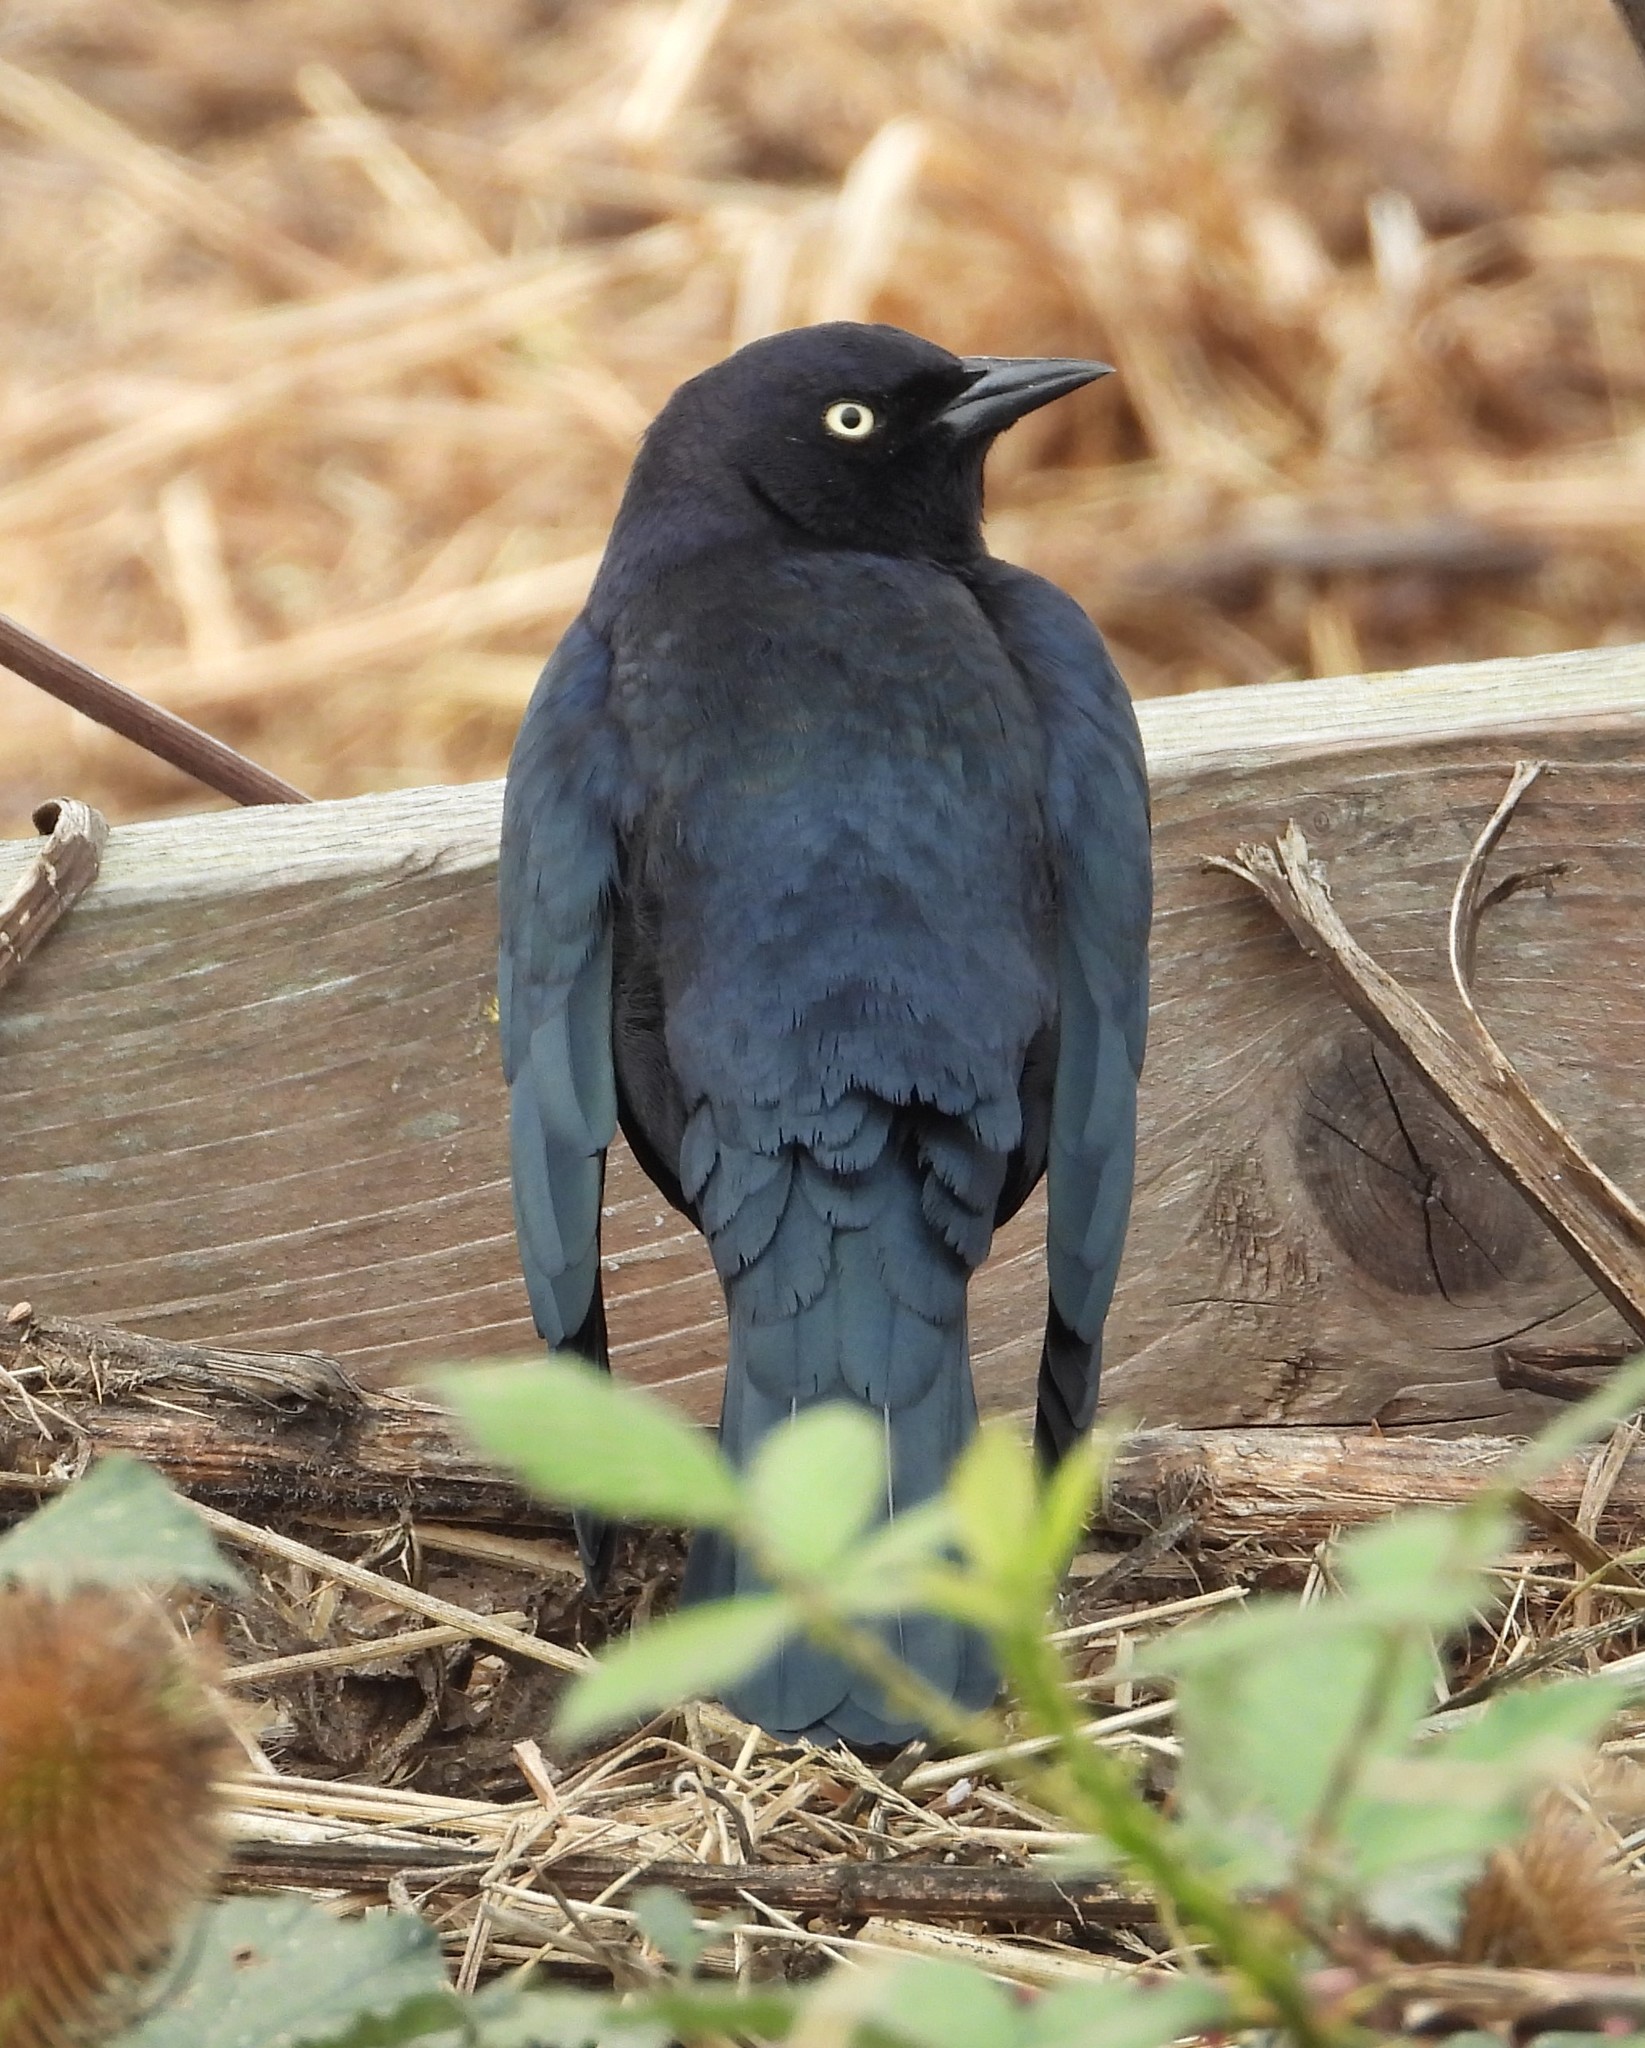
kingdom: Animalia
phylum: Chordata
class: Aves
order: Passeriformes
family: Icteridae
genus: Euphagus
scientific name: Euphagus cyanocephalus
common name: Brewer's blackbird
